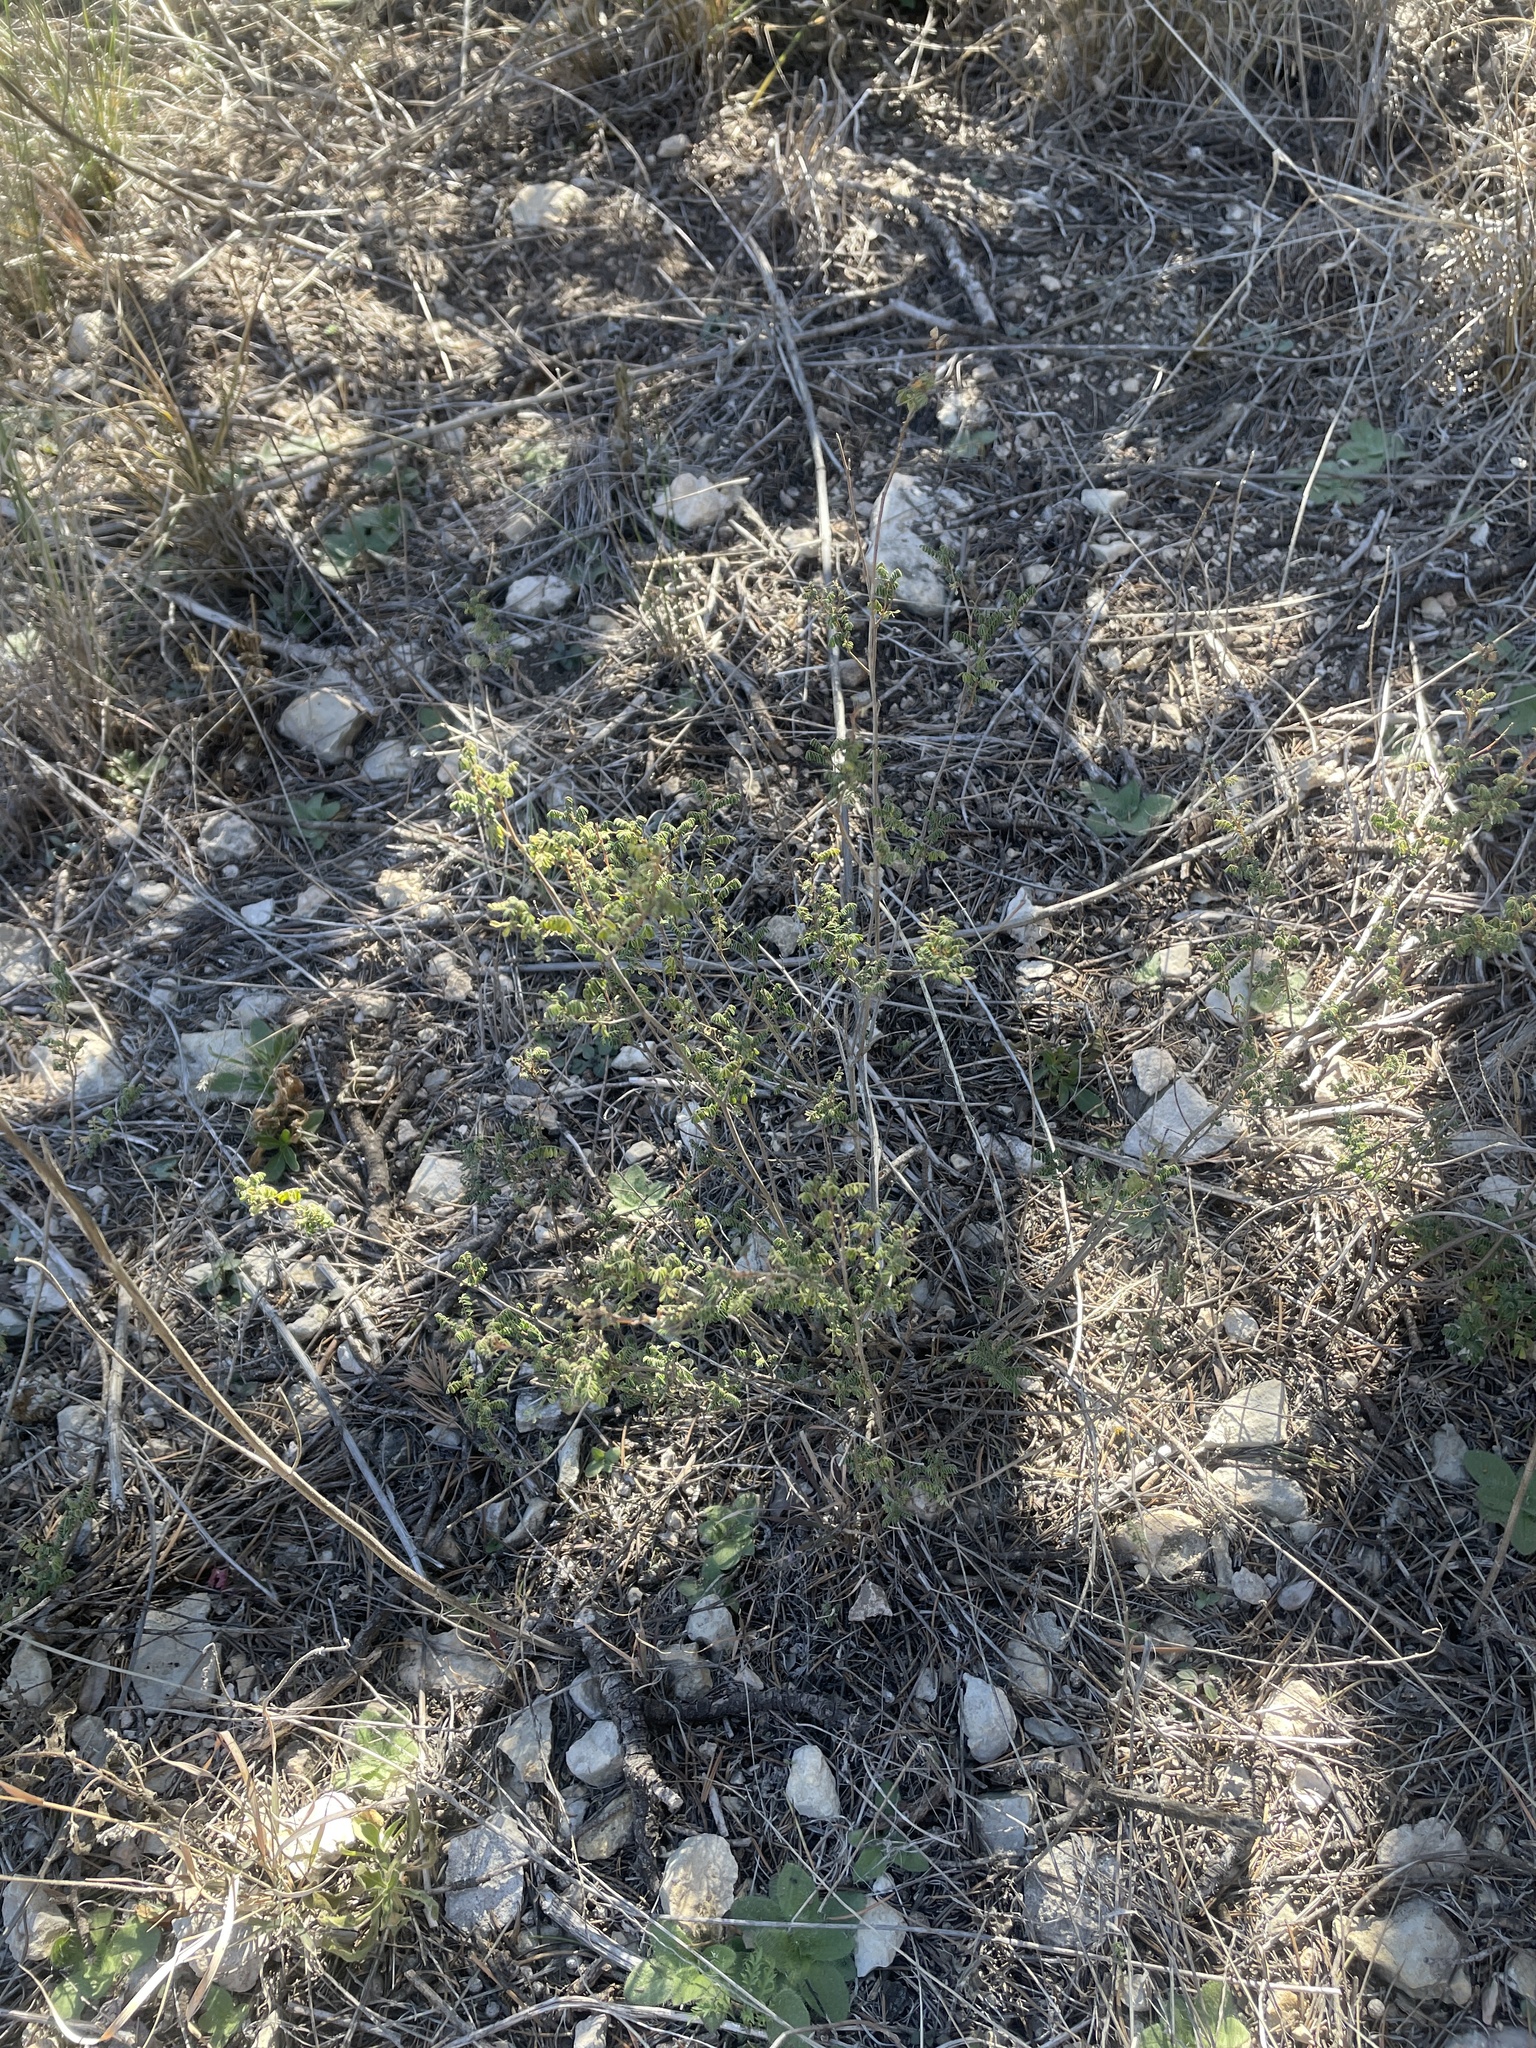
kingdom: Plantae
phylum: Tracheophyta
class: Magnoliopsida
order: Fabales
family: Fabaceae
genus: Dalea
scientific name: Dalea frutescens
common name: Black dalea
